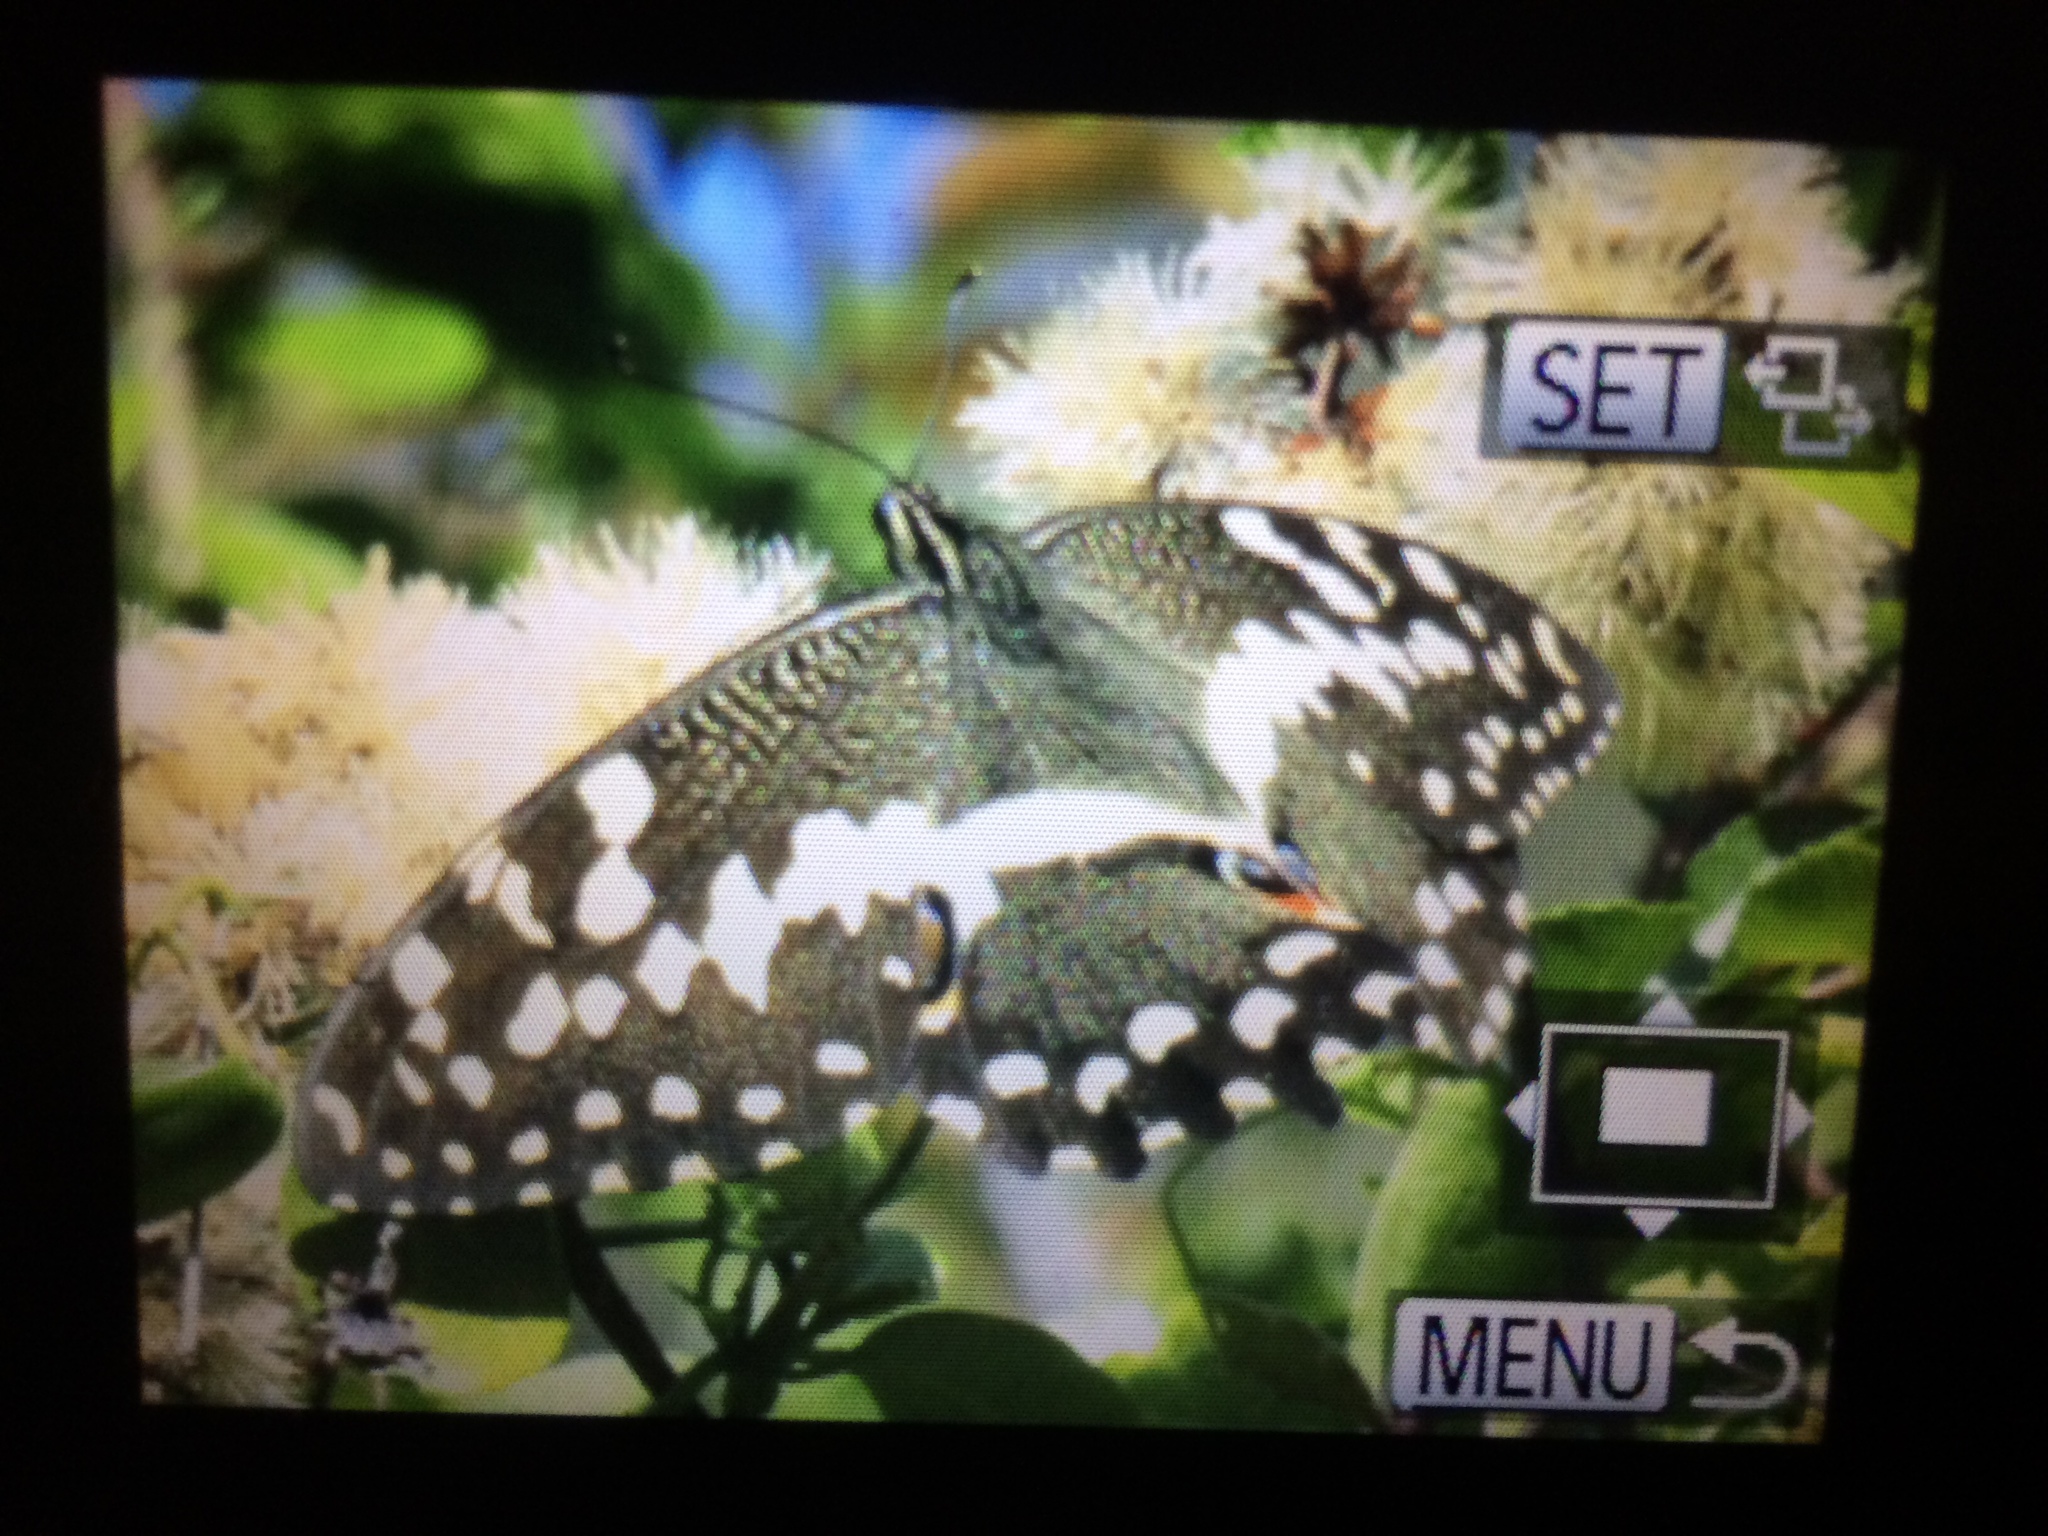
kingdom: Animalia
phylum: Arthropoda
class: Insecta
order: Lepidoptera
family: Papilionidae
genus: Papilio
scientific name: Papilio demodocus
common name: Christmas butterfly
